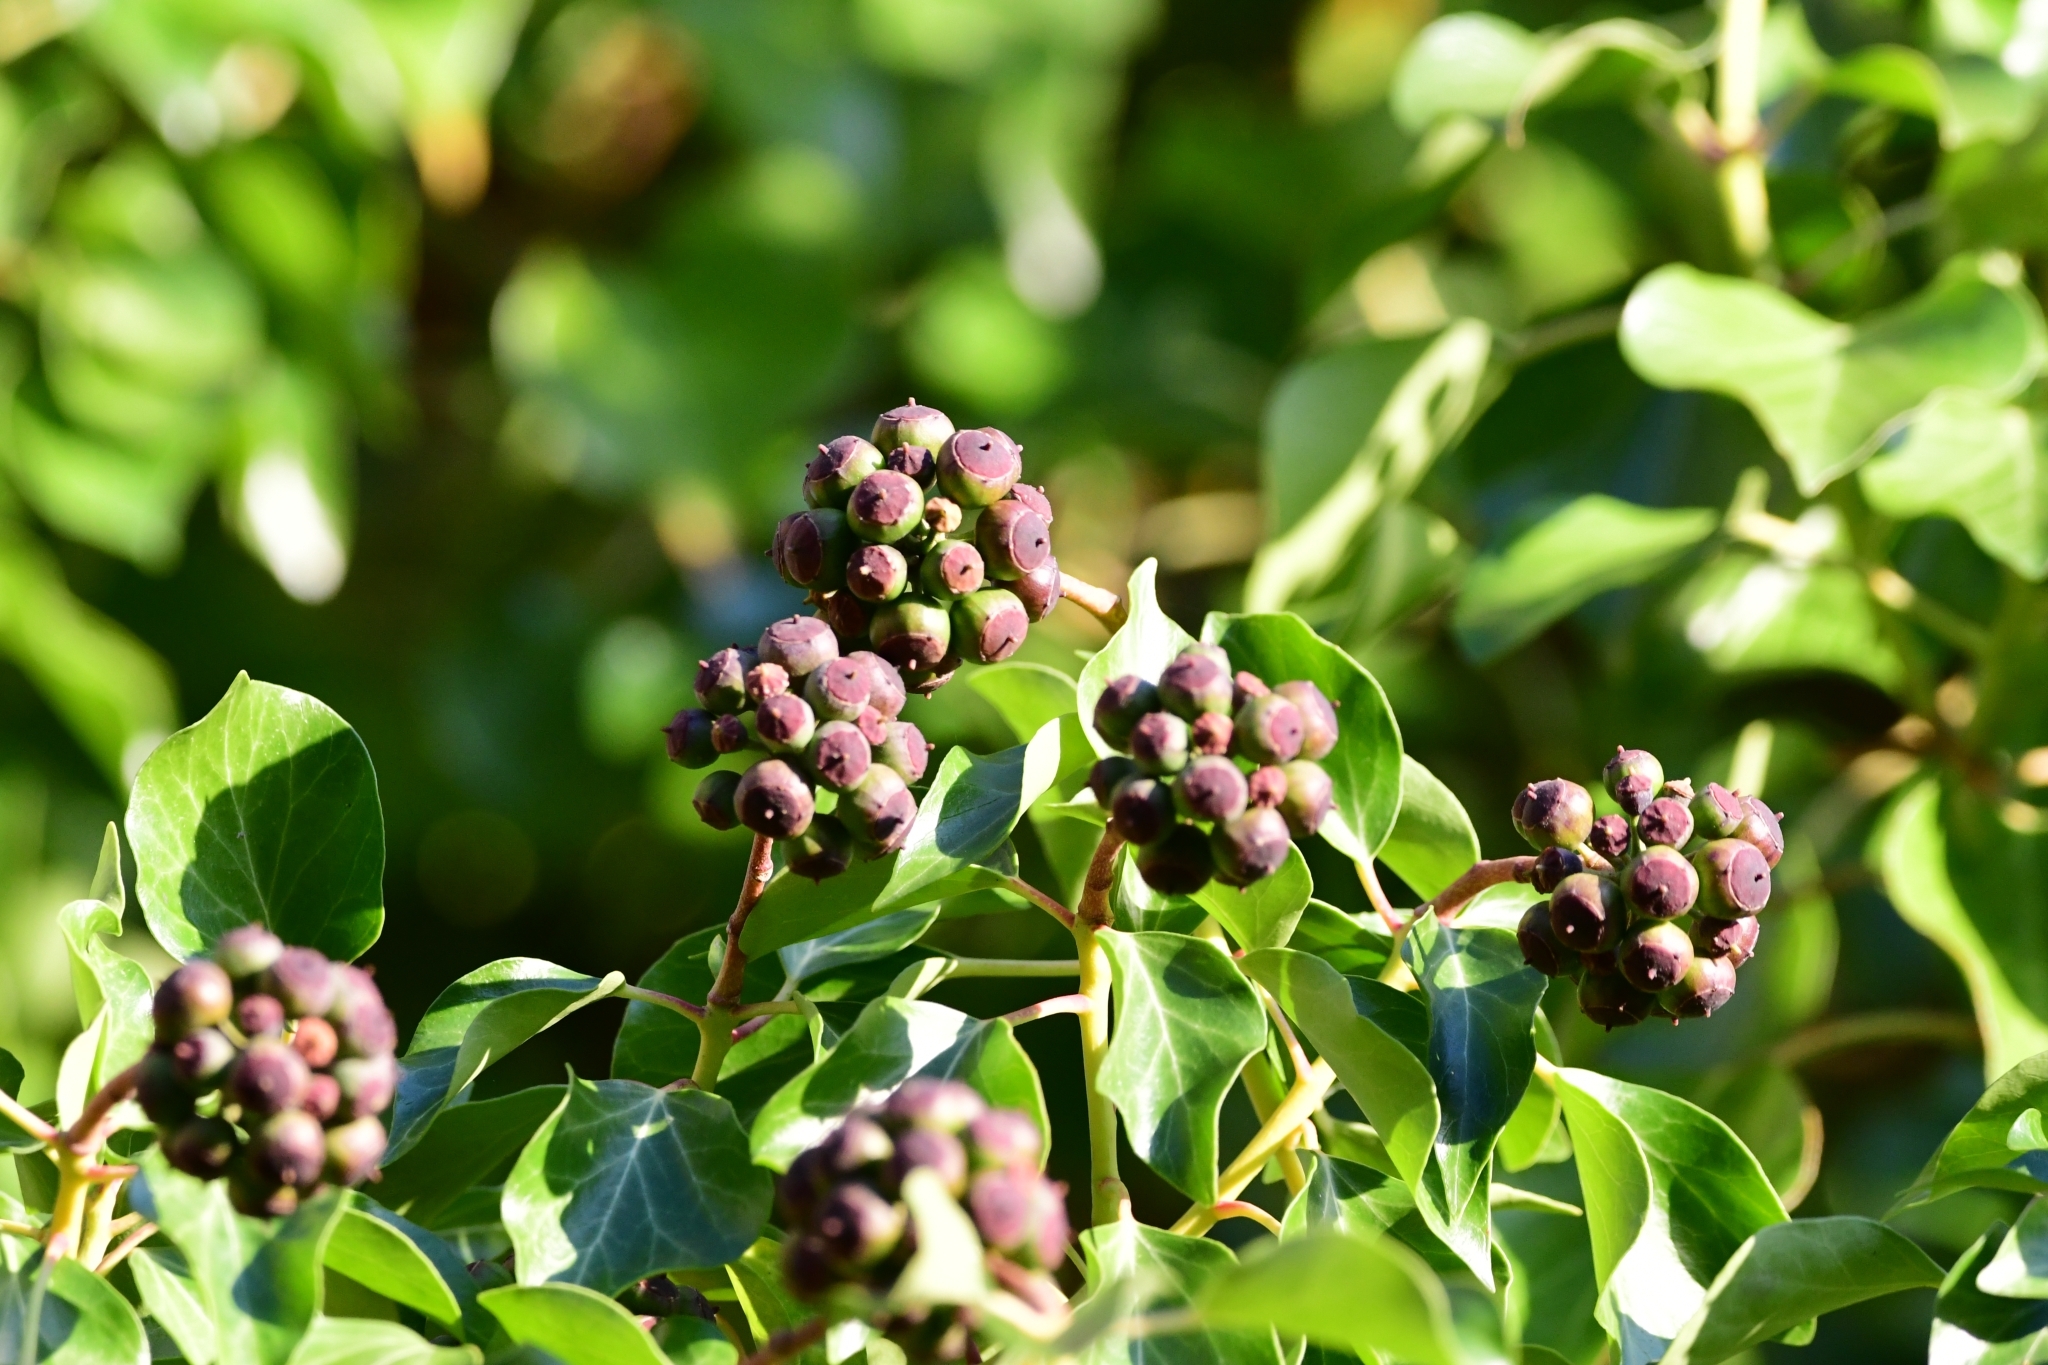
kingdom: Plantae
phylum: Tracheophyta
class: Magnoliopsida
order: Apiales
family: Araliaceae
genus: Hedera
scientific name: Hedera helix
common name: Ivy
